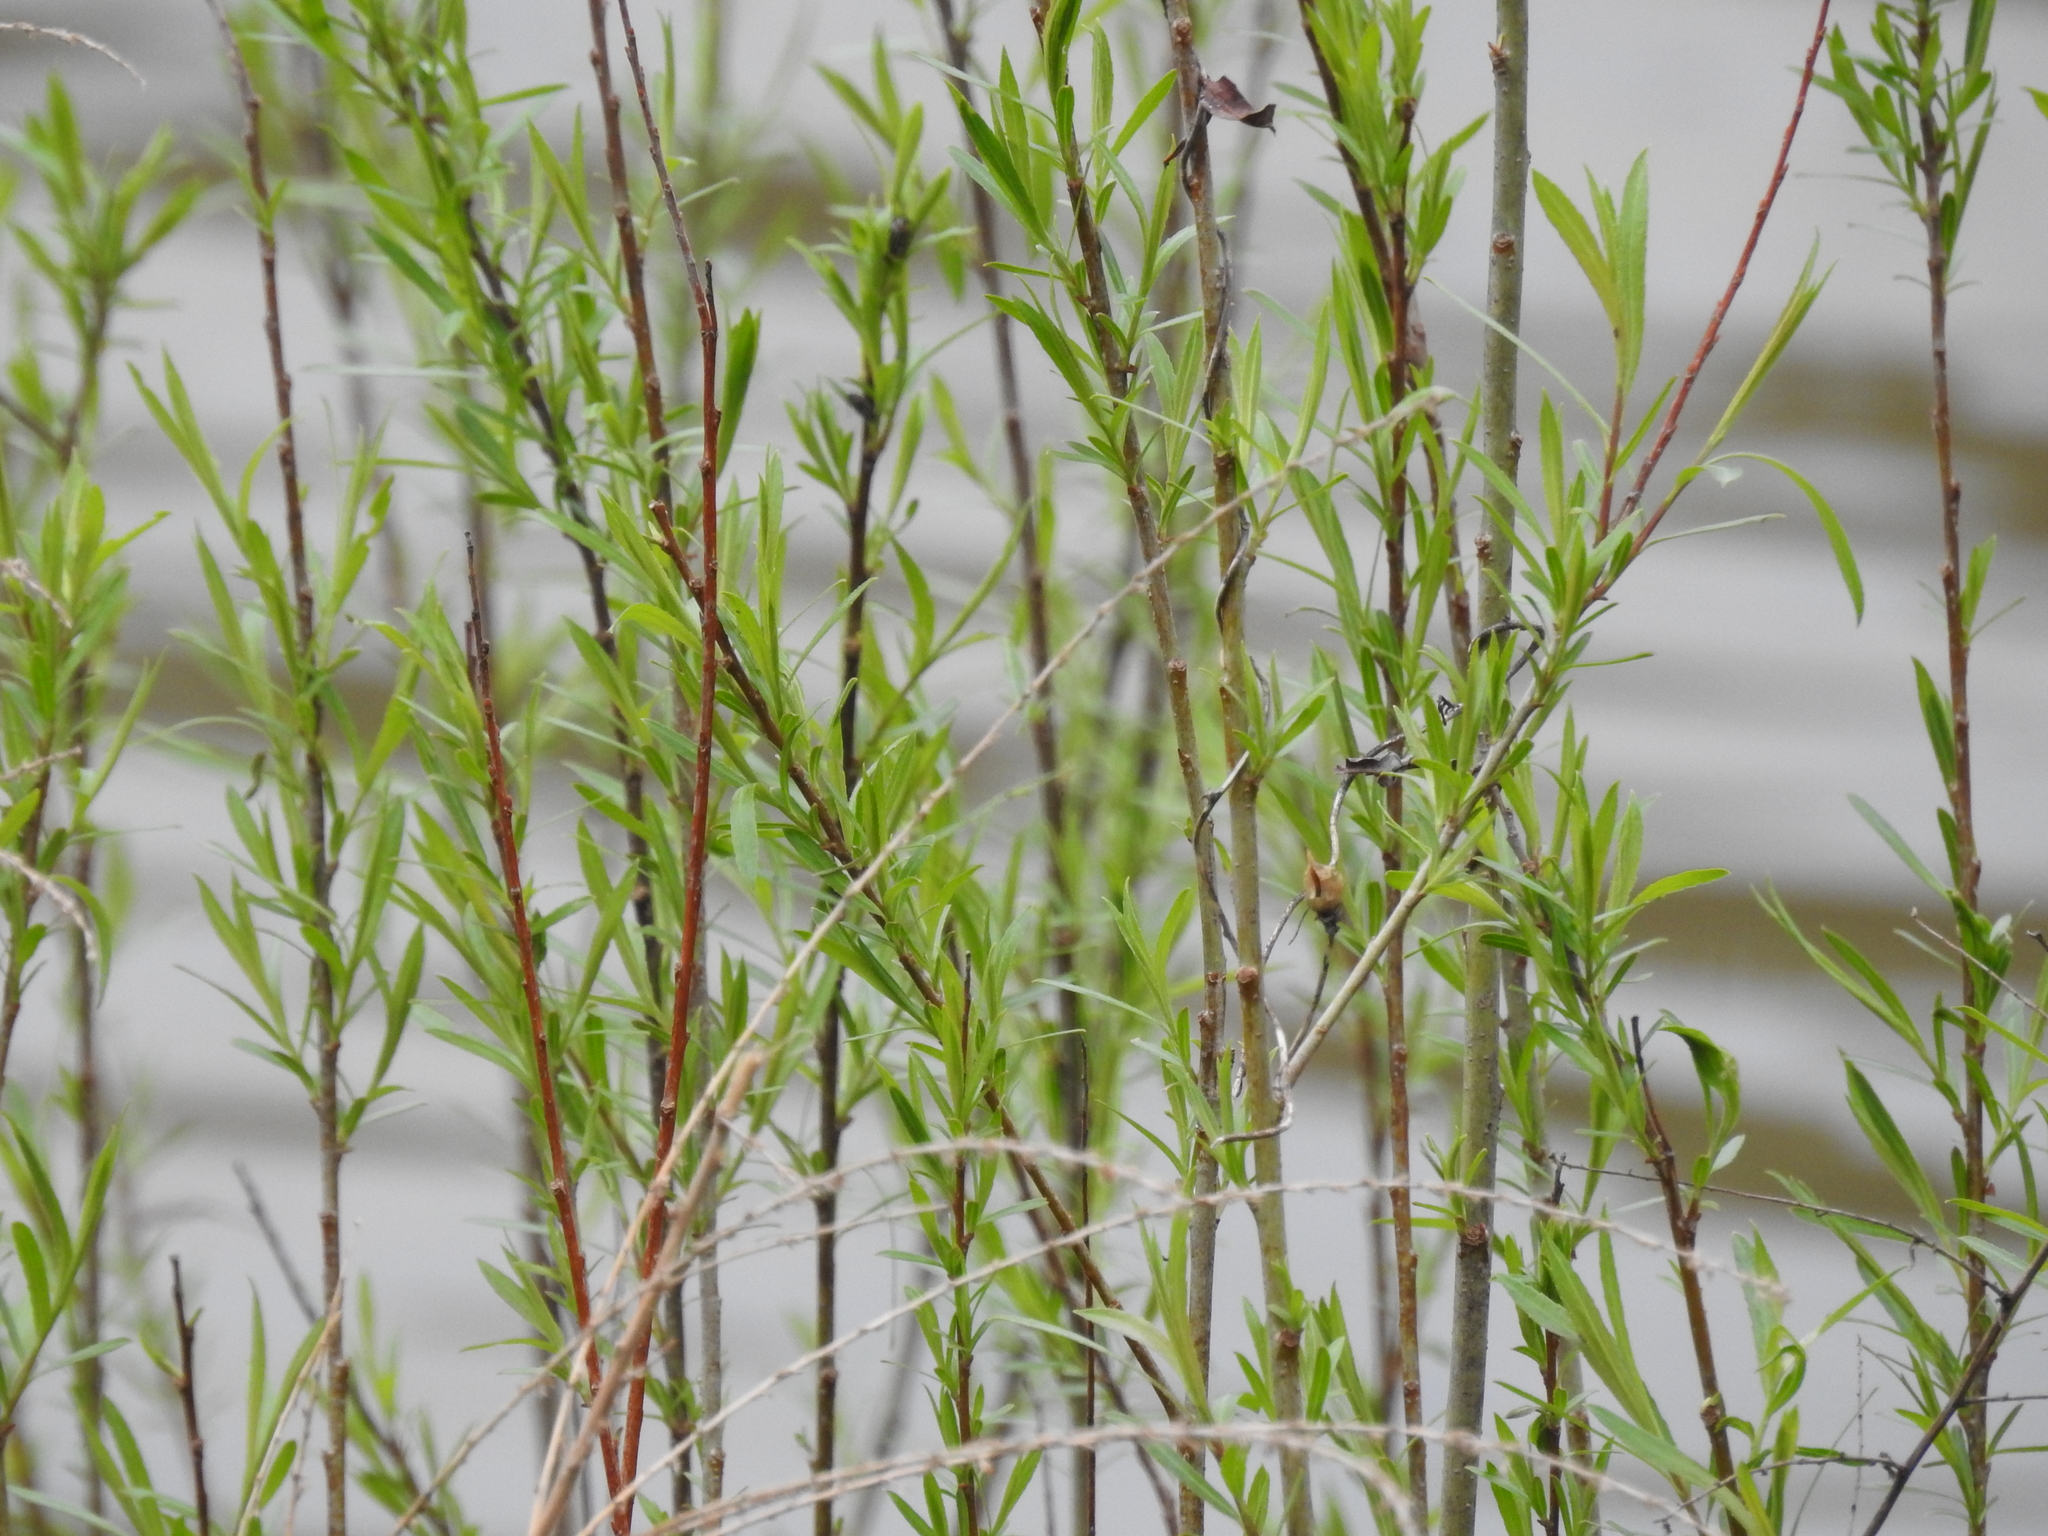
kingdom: Plantae
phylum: Tracheophyta
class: Magnoliopsida
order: Malpighiales
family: Salicaceae
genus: Salix
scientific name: Salix interior
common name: Sandbar willow
